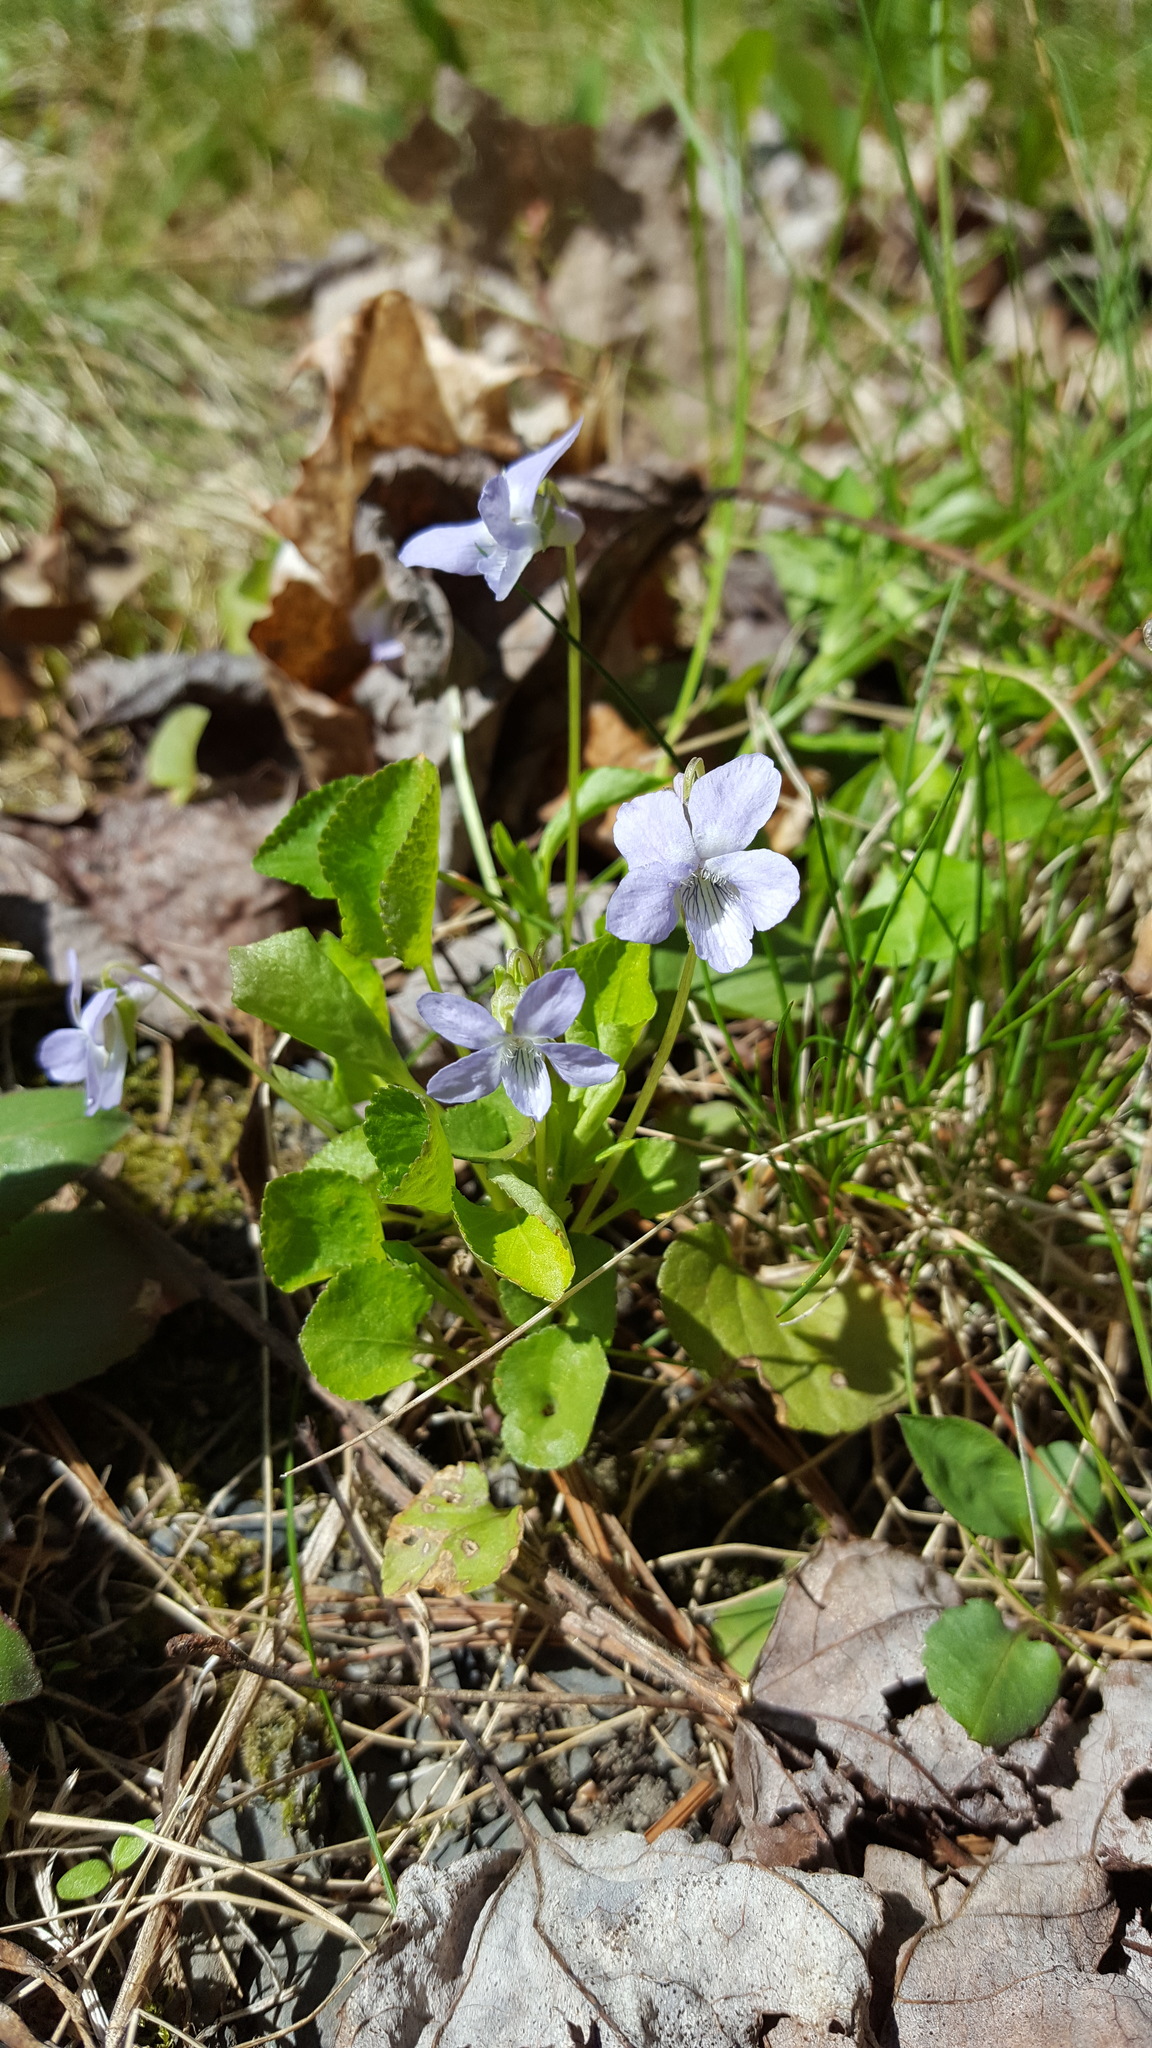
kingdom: Plantae
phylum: Tracheophyta
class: Magnoliopsida
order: Malpighiales
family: Violaceae
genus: Viola
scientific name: Viola labradorica
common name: Labrador violet
